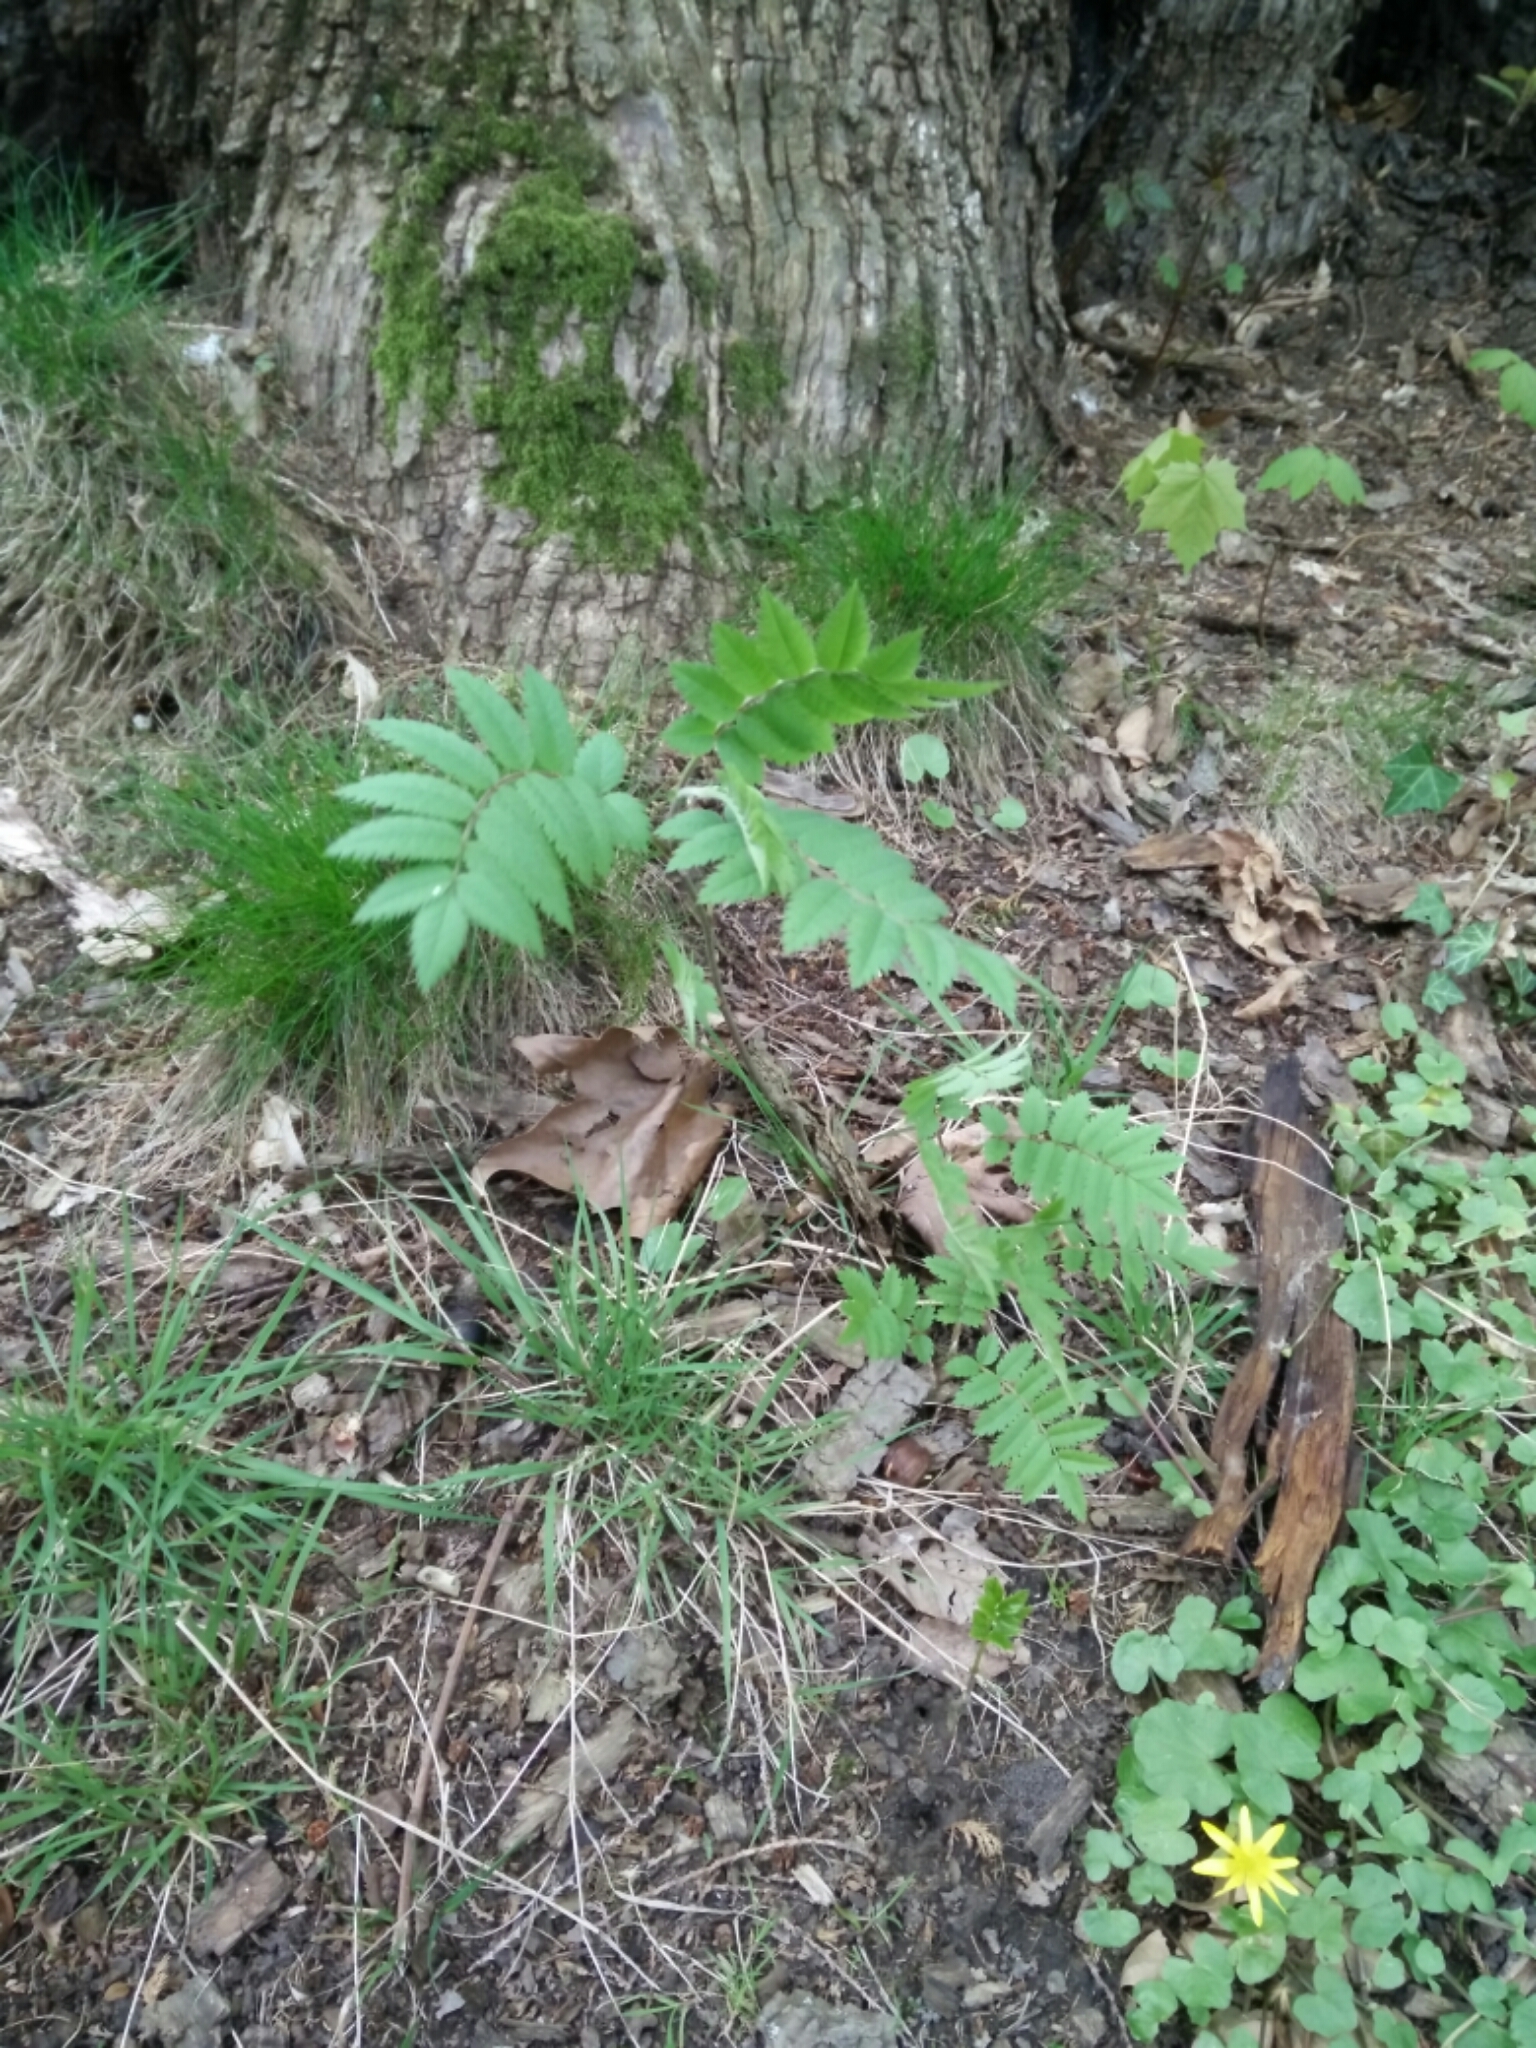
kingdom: Plantae
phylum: Tracheophyta
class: Magnoliopsida
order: Rosales
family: Rosaceae
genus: Sorbus
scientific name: Sorbus aucuparia
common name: Rowan
